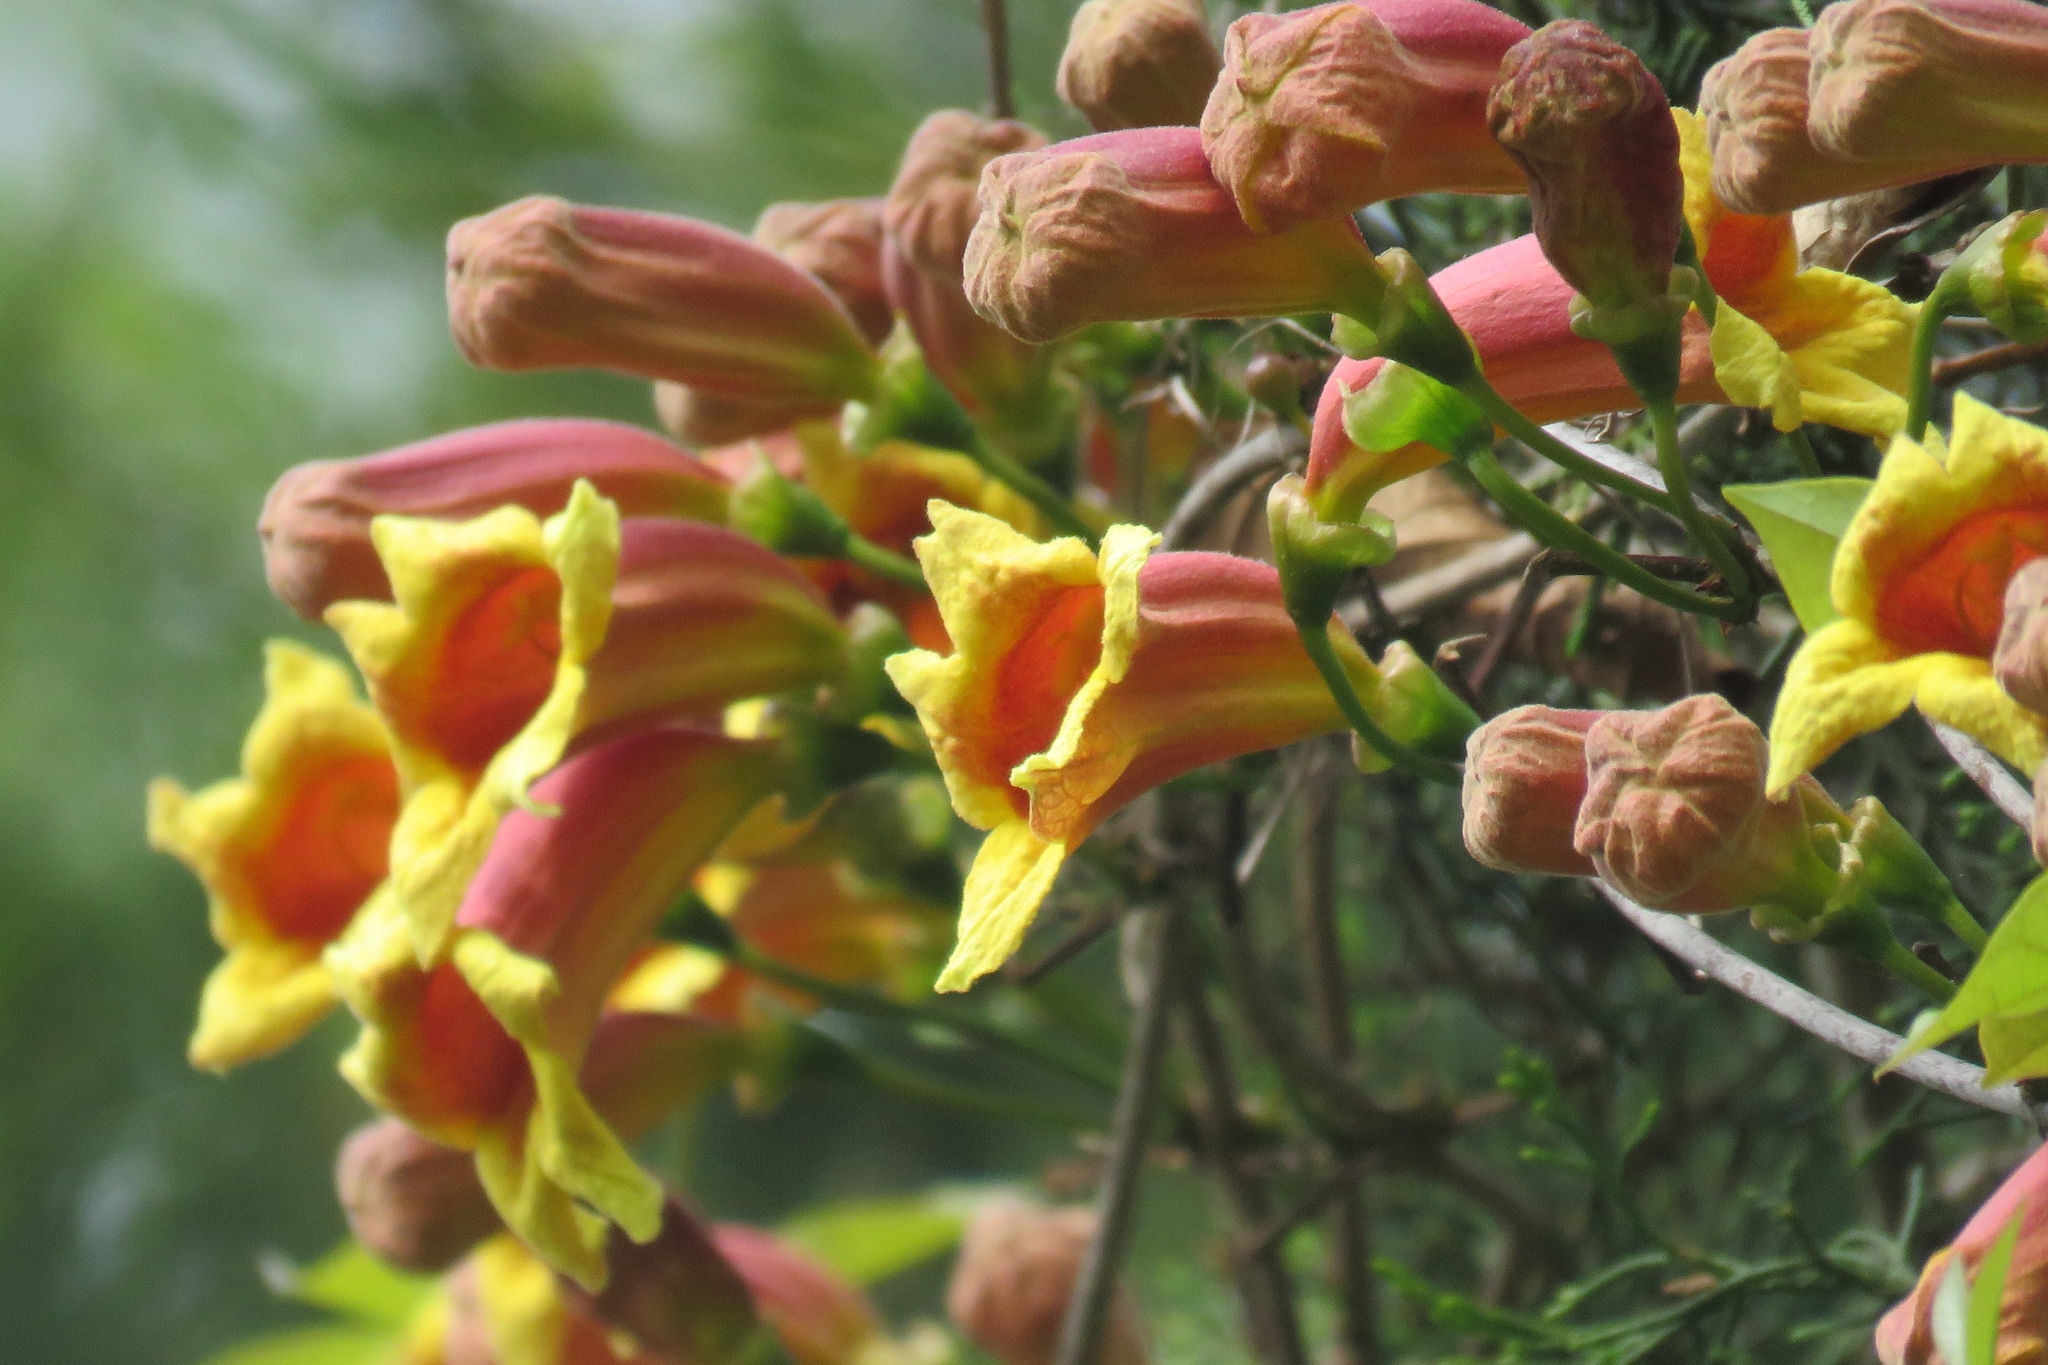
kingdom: Plantae
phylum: Tracheophyta
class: Magnoliopsida
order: Lamiales
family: Bignoniaceae
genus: Bignonia
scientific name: Bignonia capreolata
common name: Crossvine
